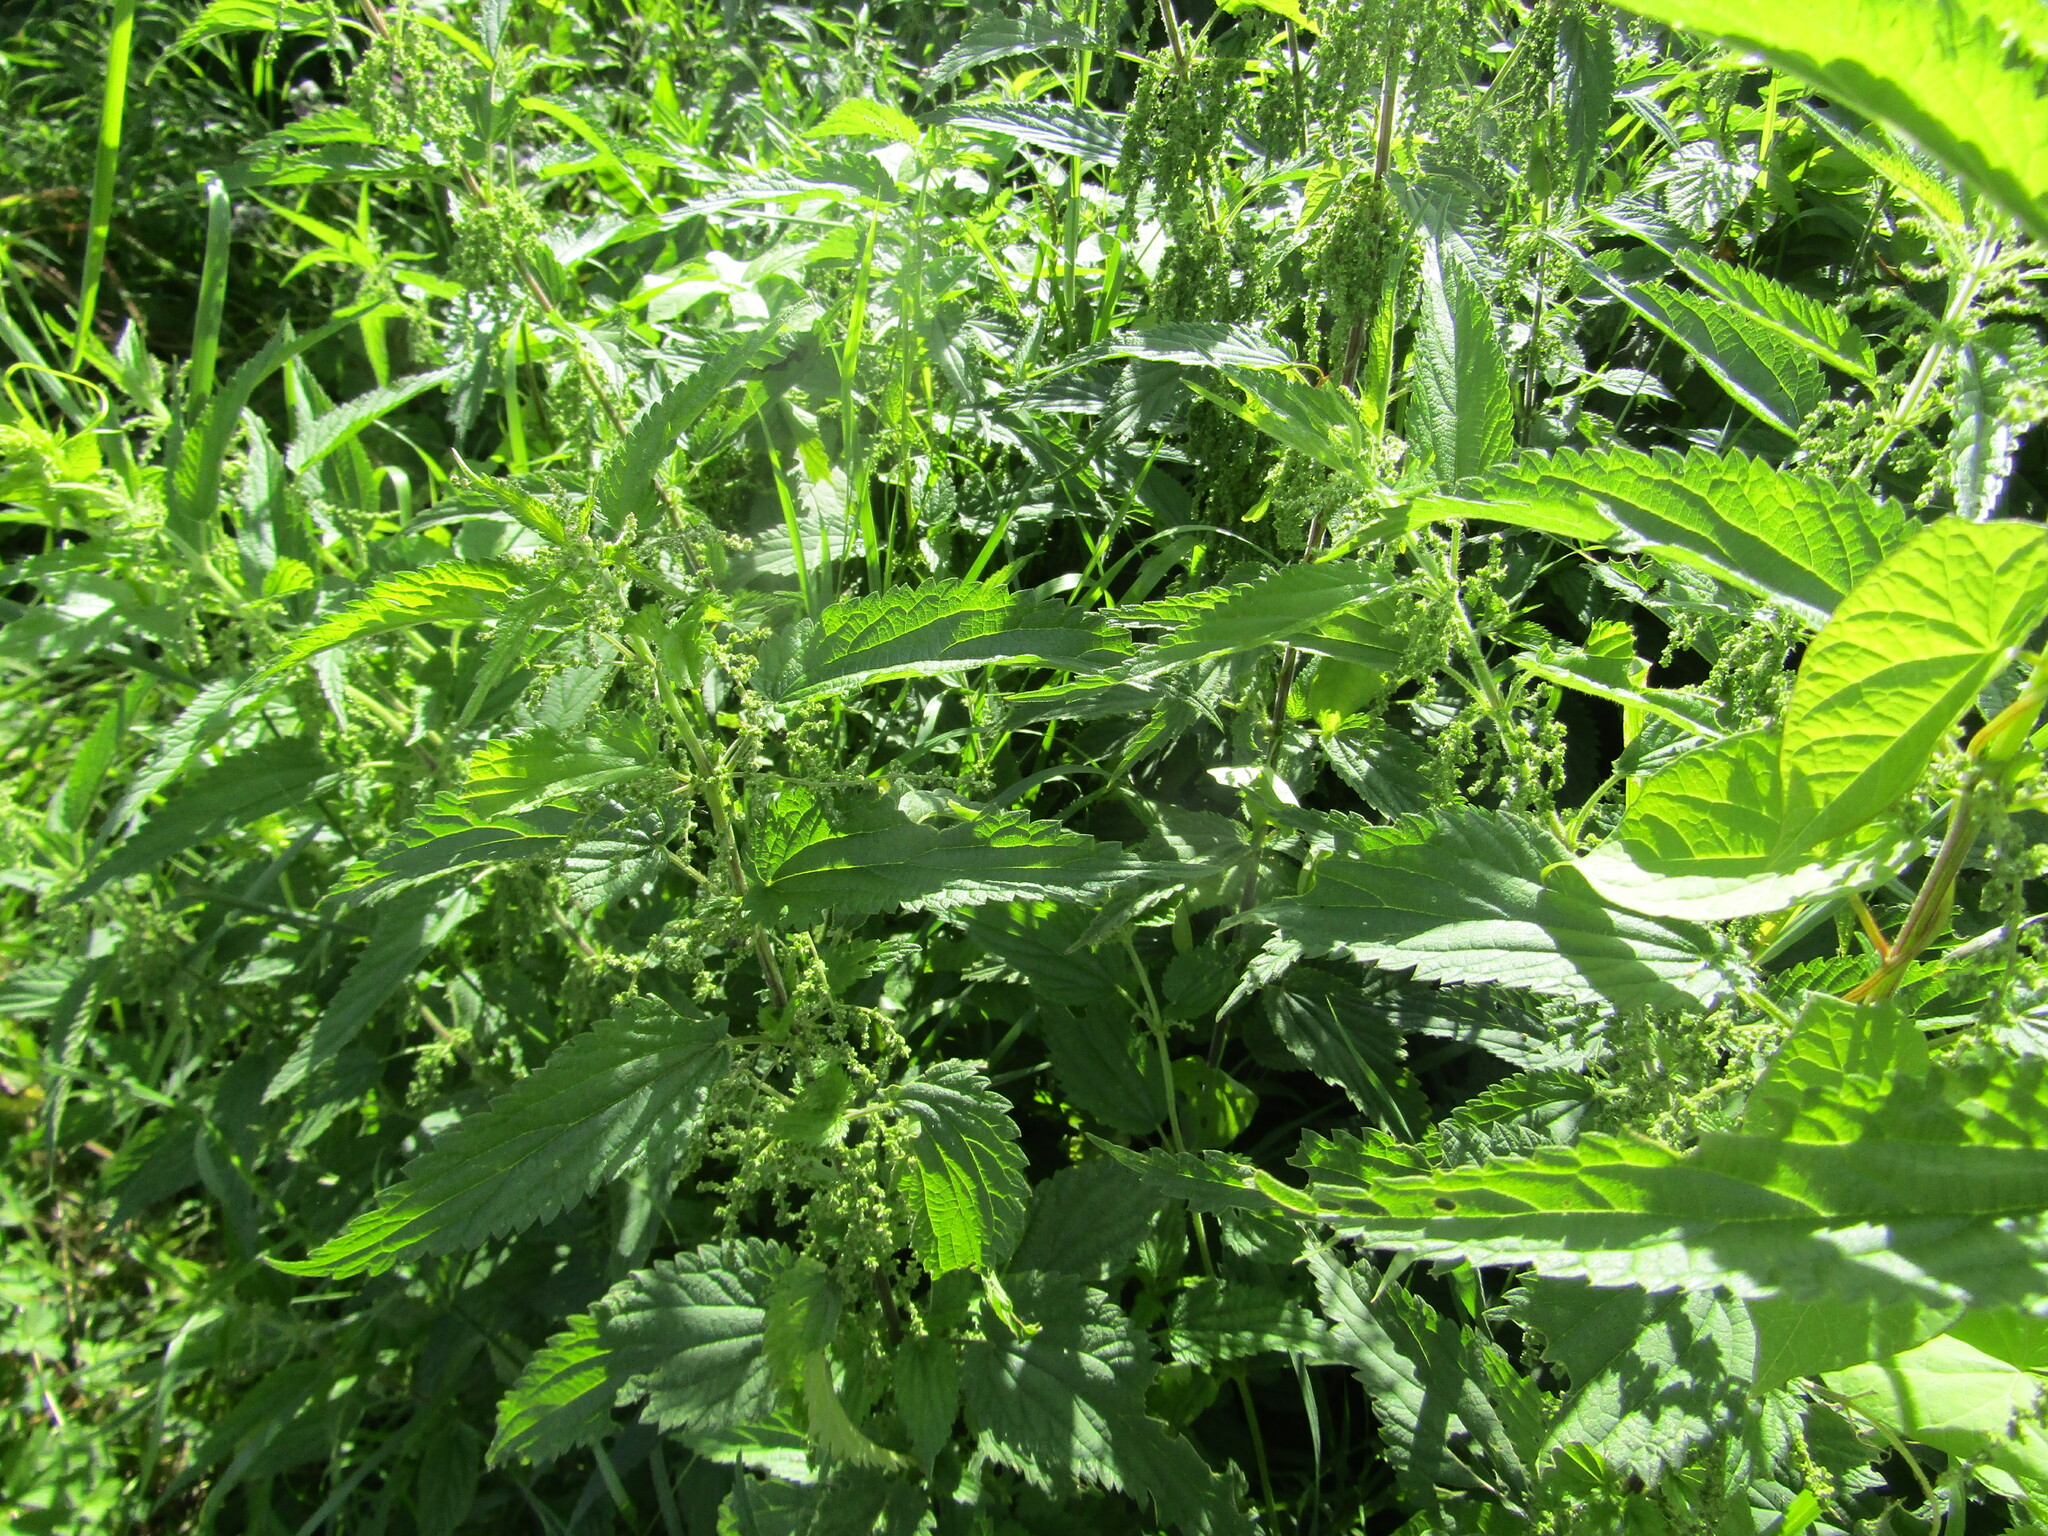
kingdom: Plantae
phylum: Tracheophyta
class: Magnoliopsida
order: Rosales
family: Urticaceae
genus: Urtica
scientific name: Urtica dioica
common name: Common nettle
